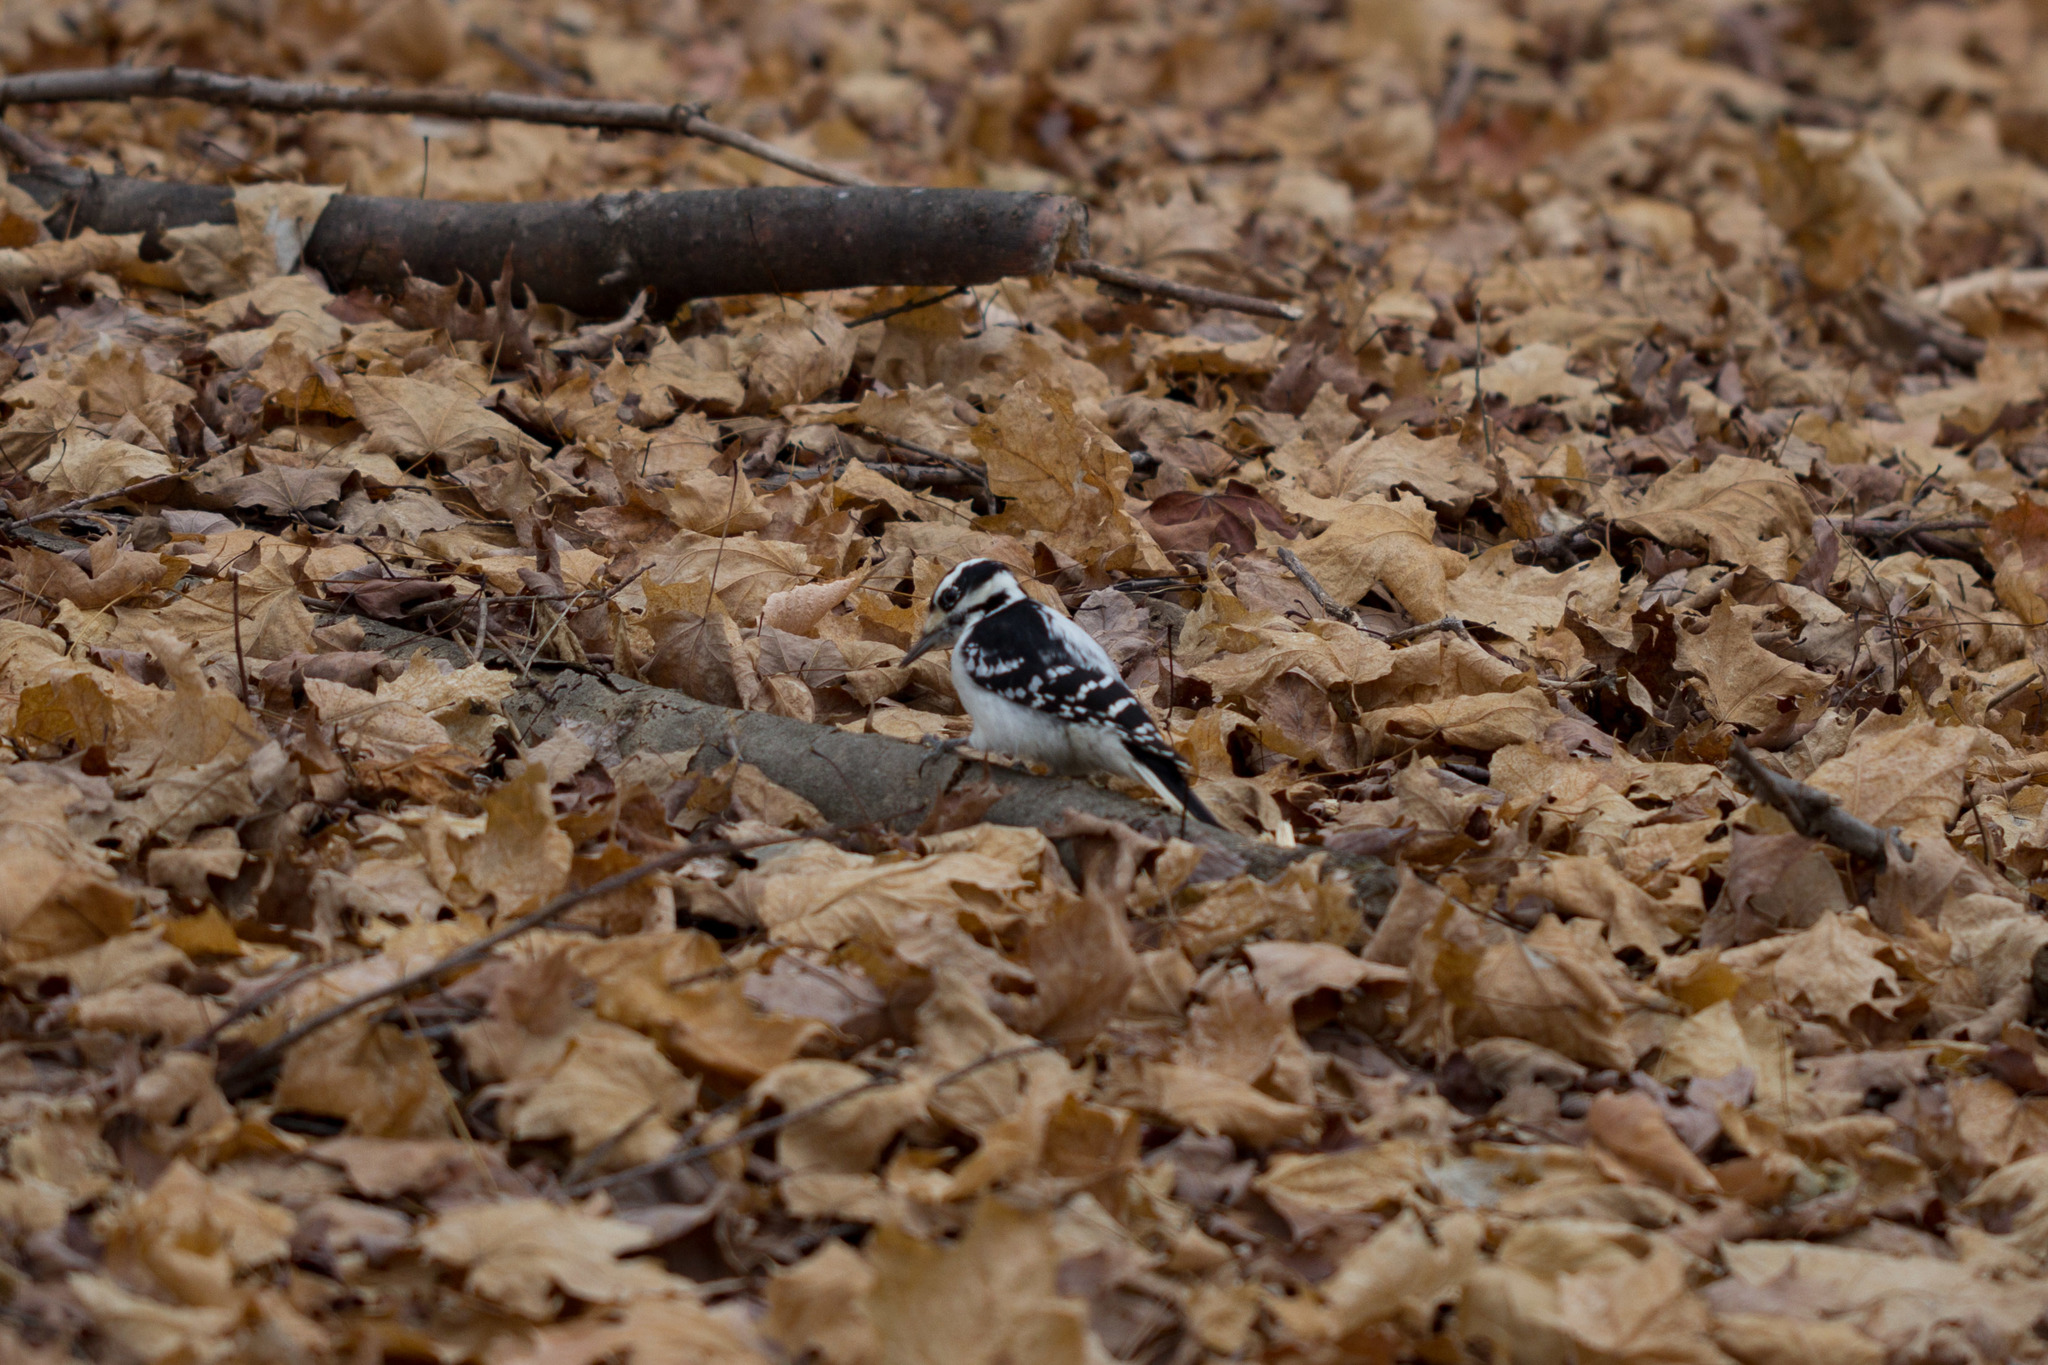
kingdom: Animalia
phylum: Chordata
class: Aves
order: Piciformes
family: Picidae
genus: Leuconotopicus
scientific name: Leuconotopicus villosus
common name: Hairy woodpecker
